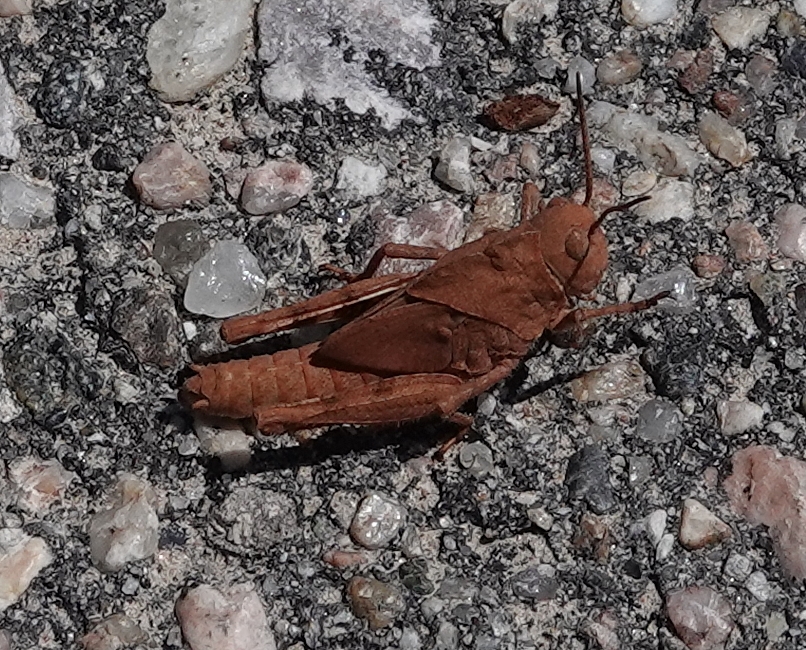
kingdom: Animalia
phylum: Arthropoda
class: Insecta
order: Orthoptera
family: Acrididae
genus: Dissosteira
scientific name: Dissosteira carolina
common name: Carolina grasshopper
